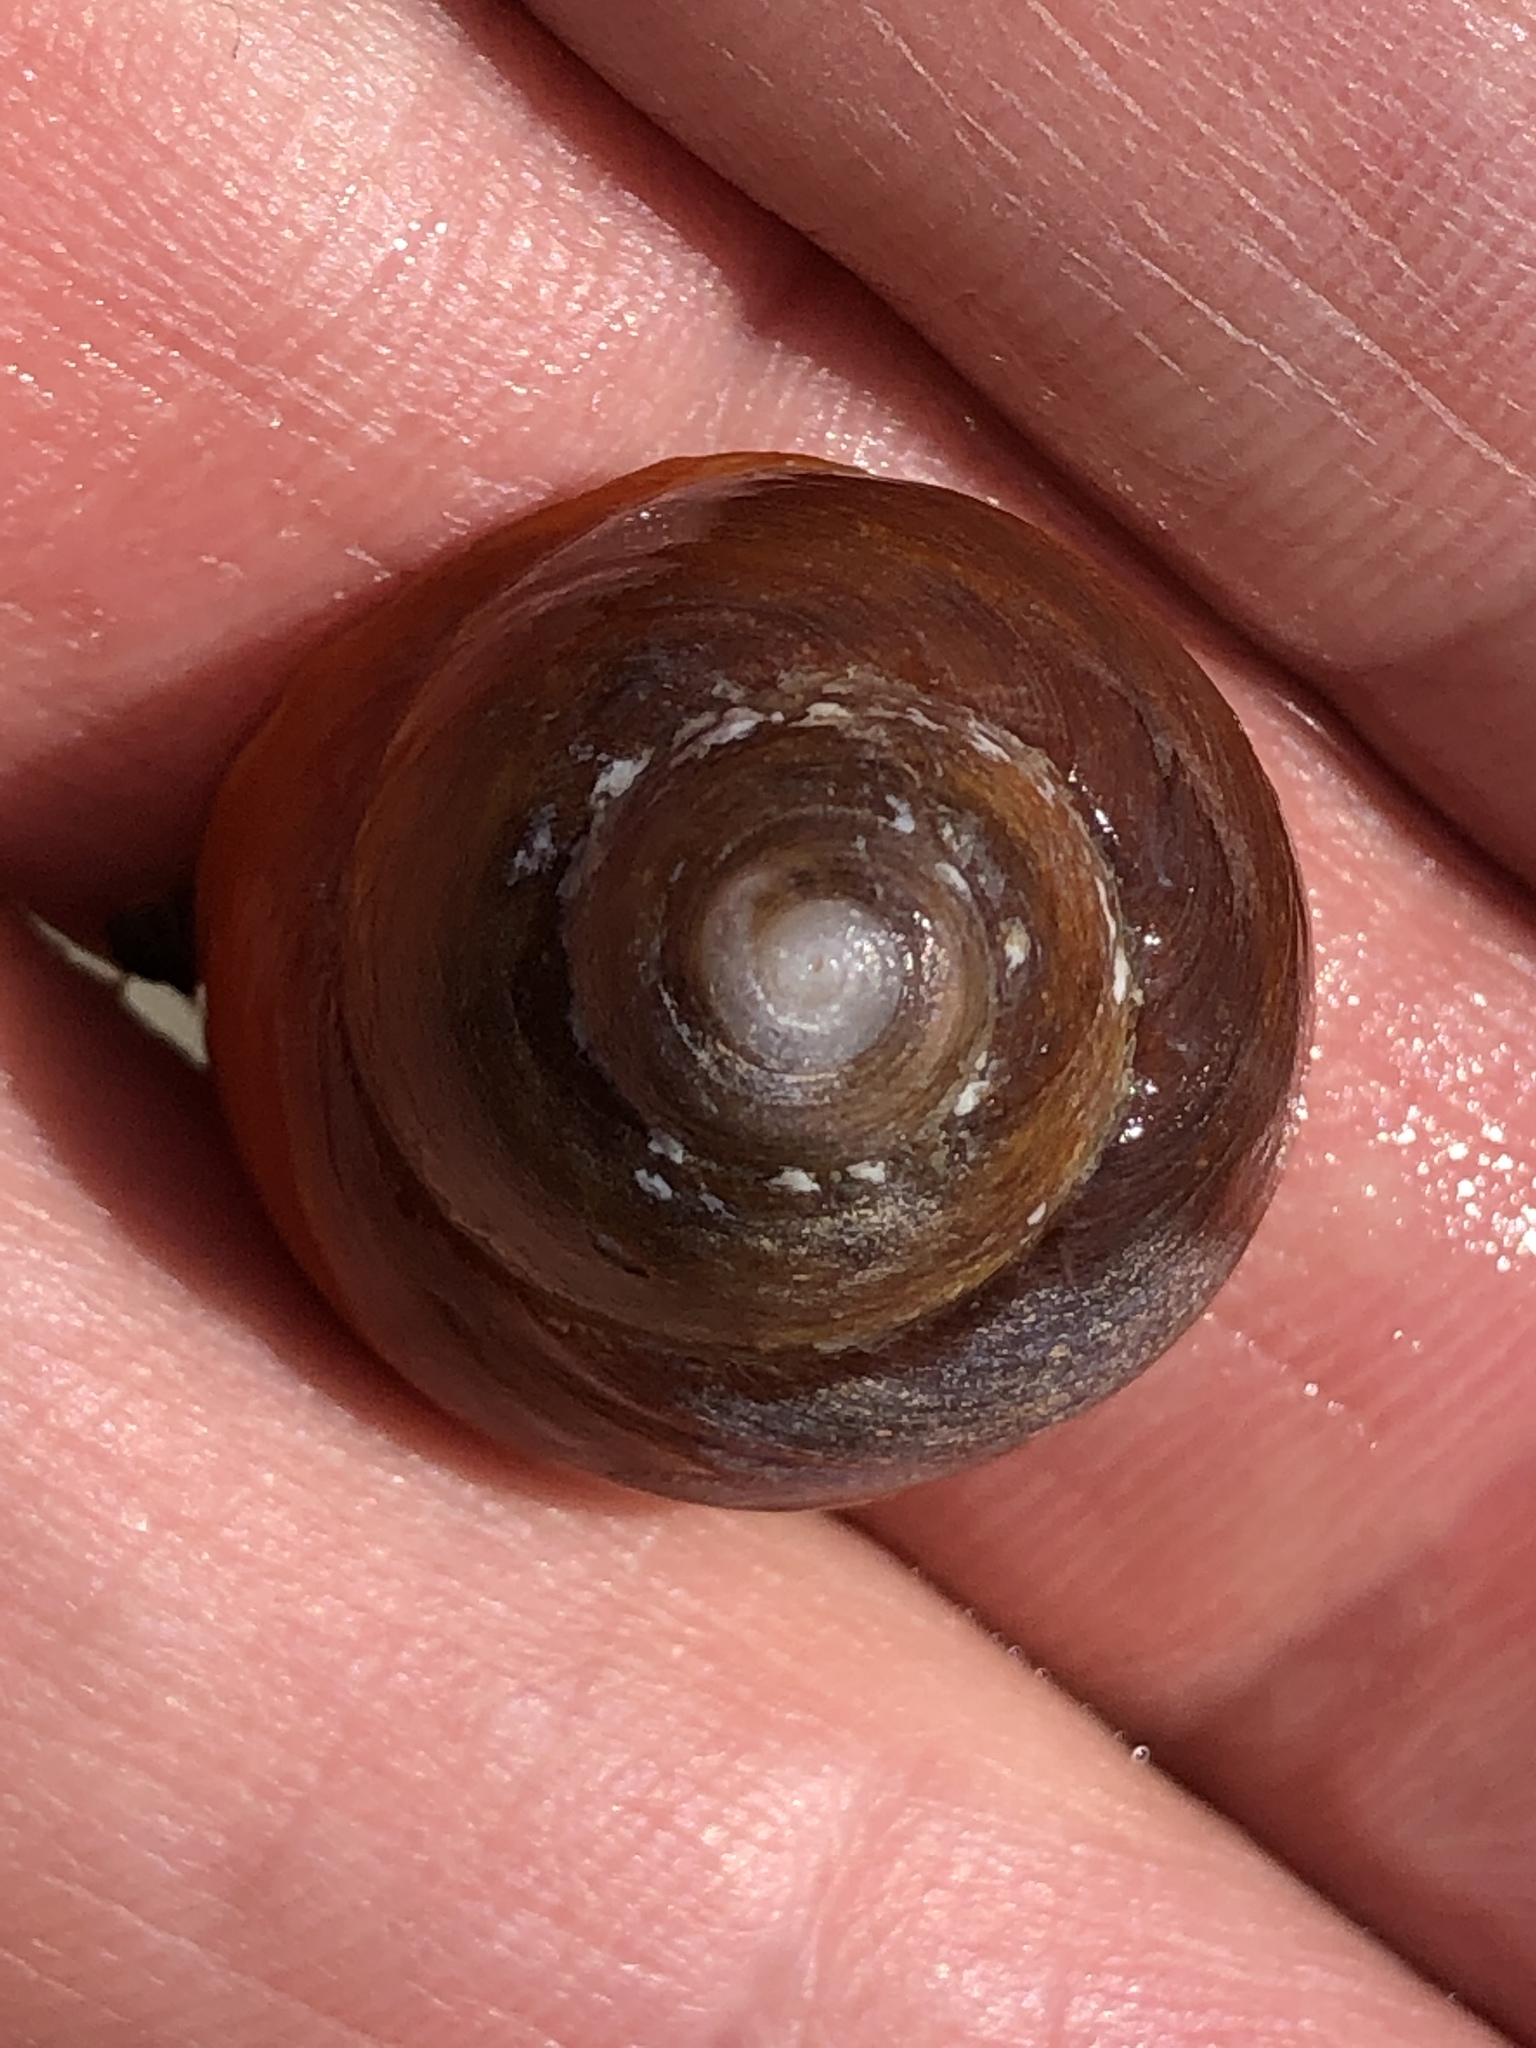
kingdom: Animalia
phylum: Mollusca
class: Gastropoda
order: Trochida
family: Tegulidae
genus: Tegula
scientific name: Tegula brunnea
